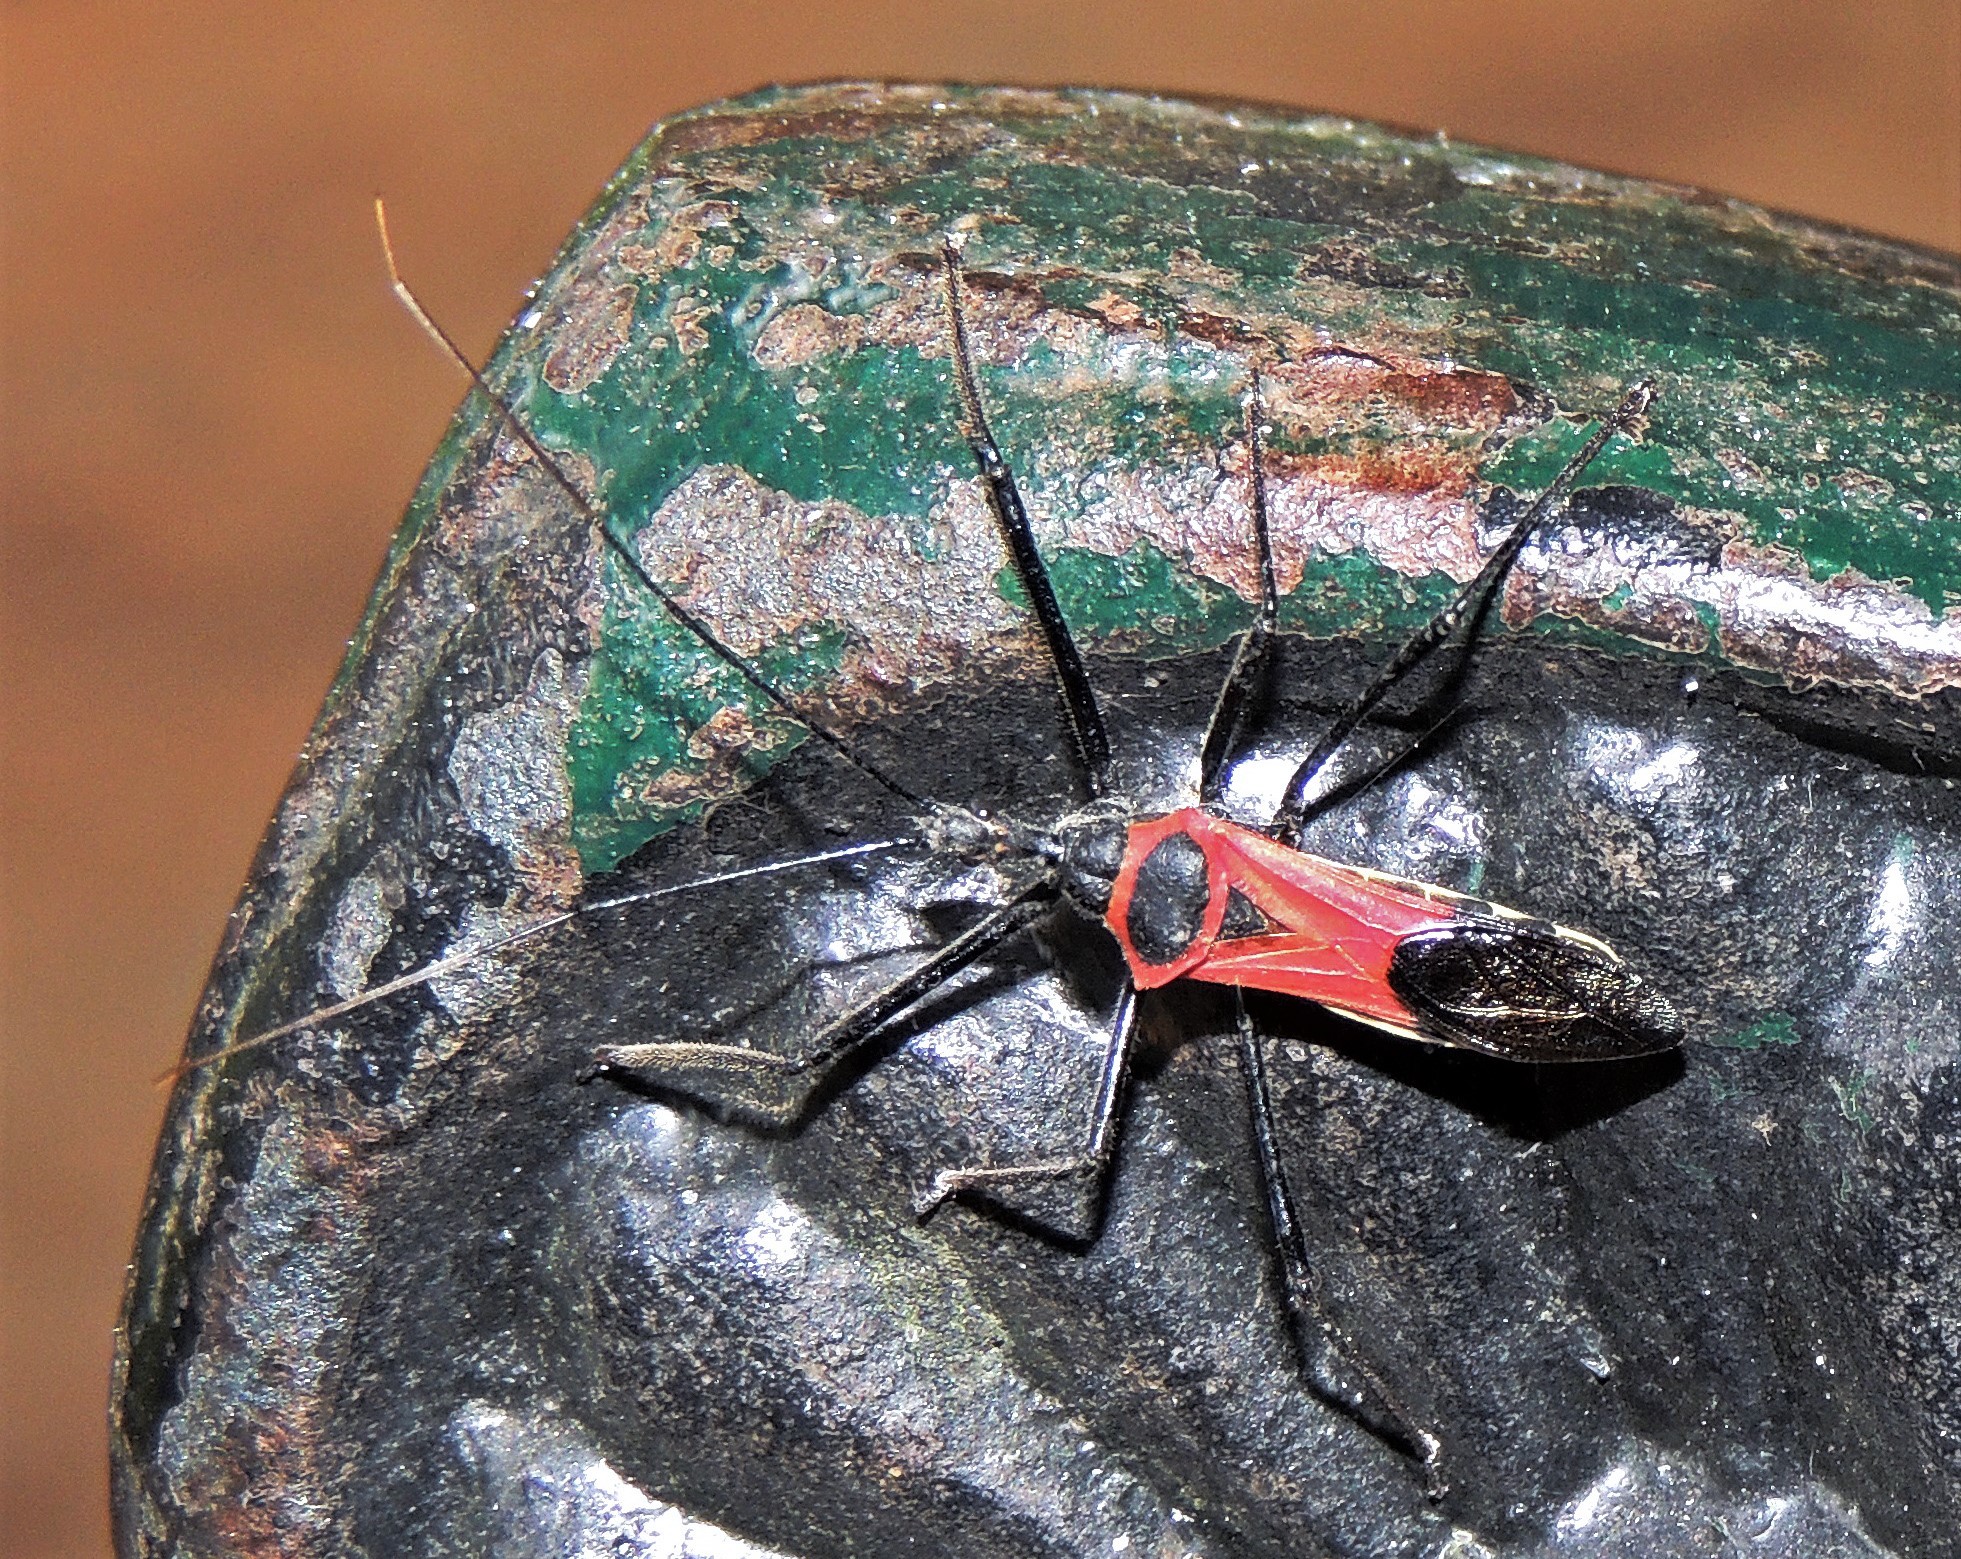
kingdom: Animalia
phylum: Arthropoda
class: Insecta
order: Hemiptera
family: Reduviidae
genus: Zelus
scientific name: Zelus armillatus
